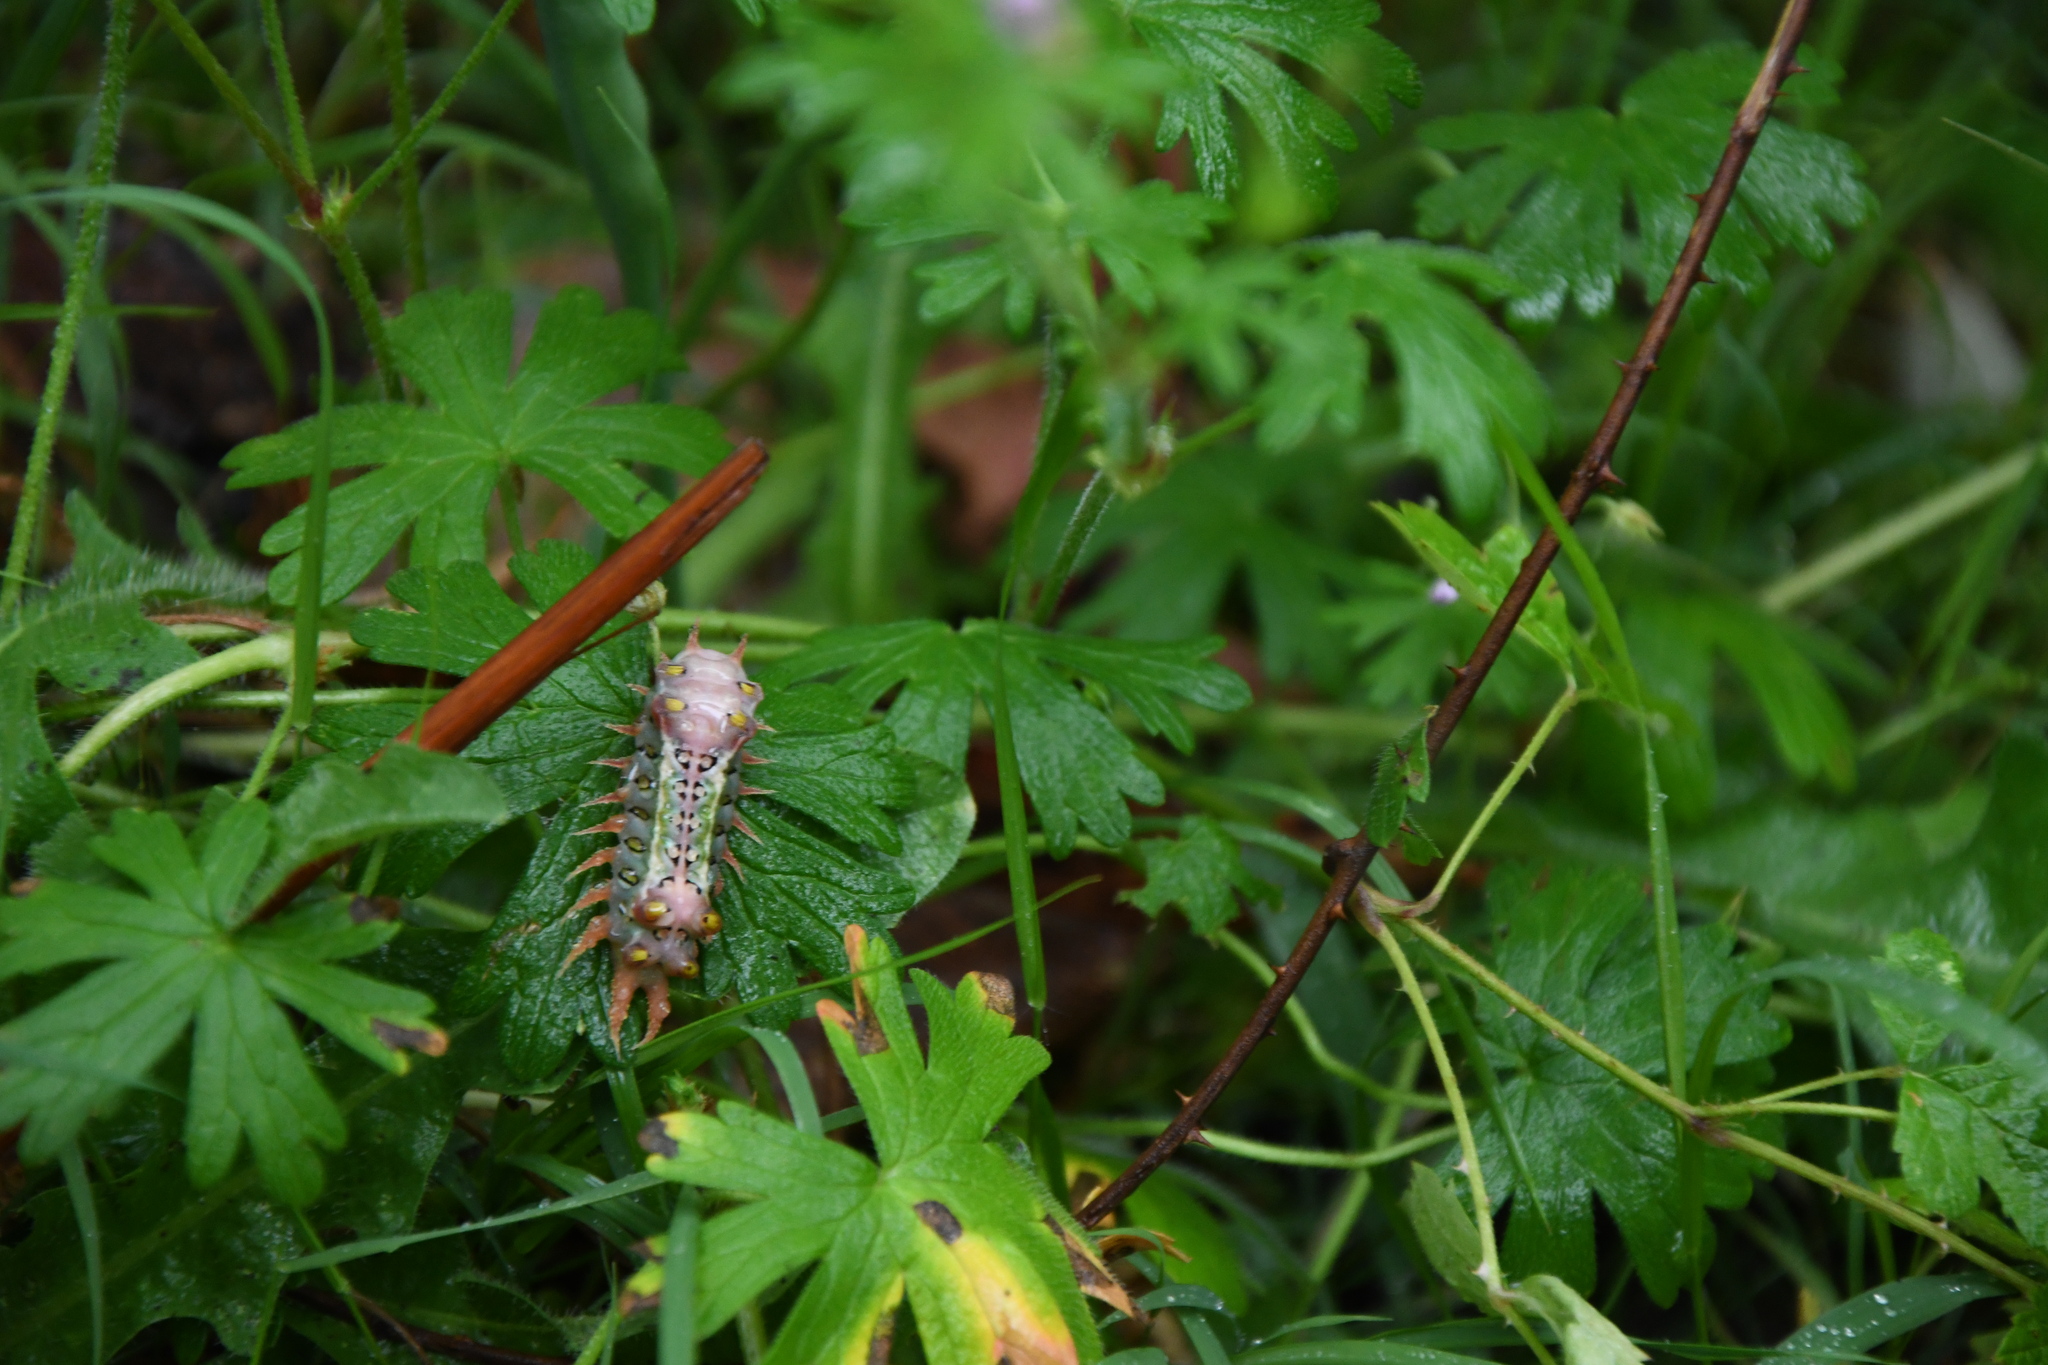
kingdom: Animalia
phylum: Arthropoda
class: Insecta
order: Lepidoptera
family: Limacodidae
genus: Doratifera
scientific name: Doratifera oxleyi
